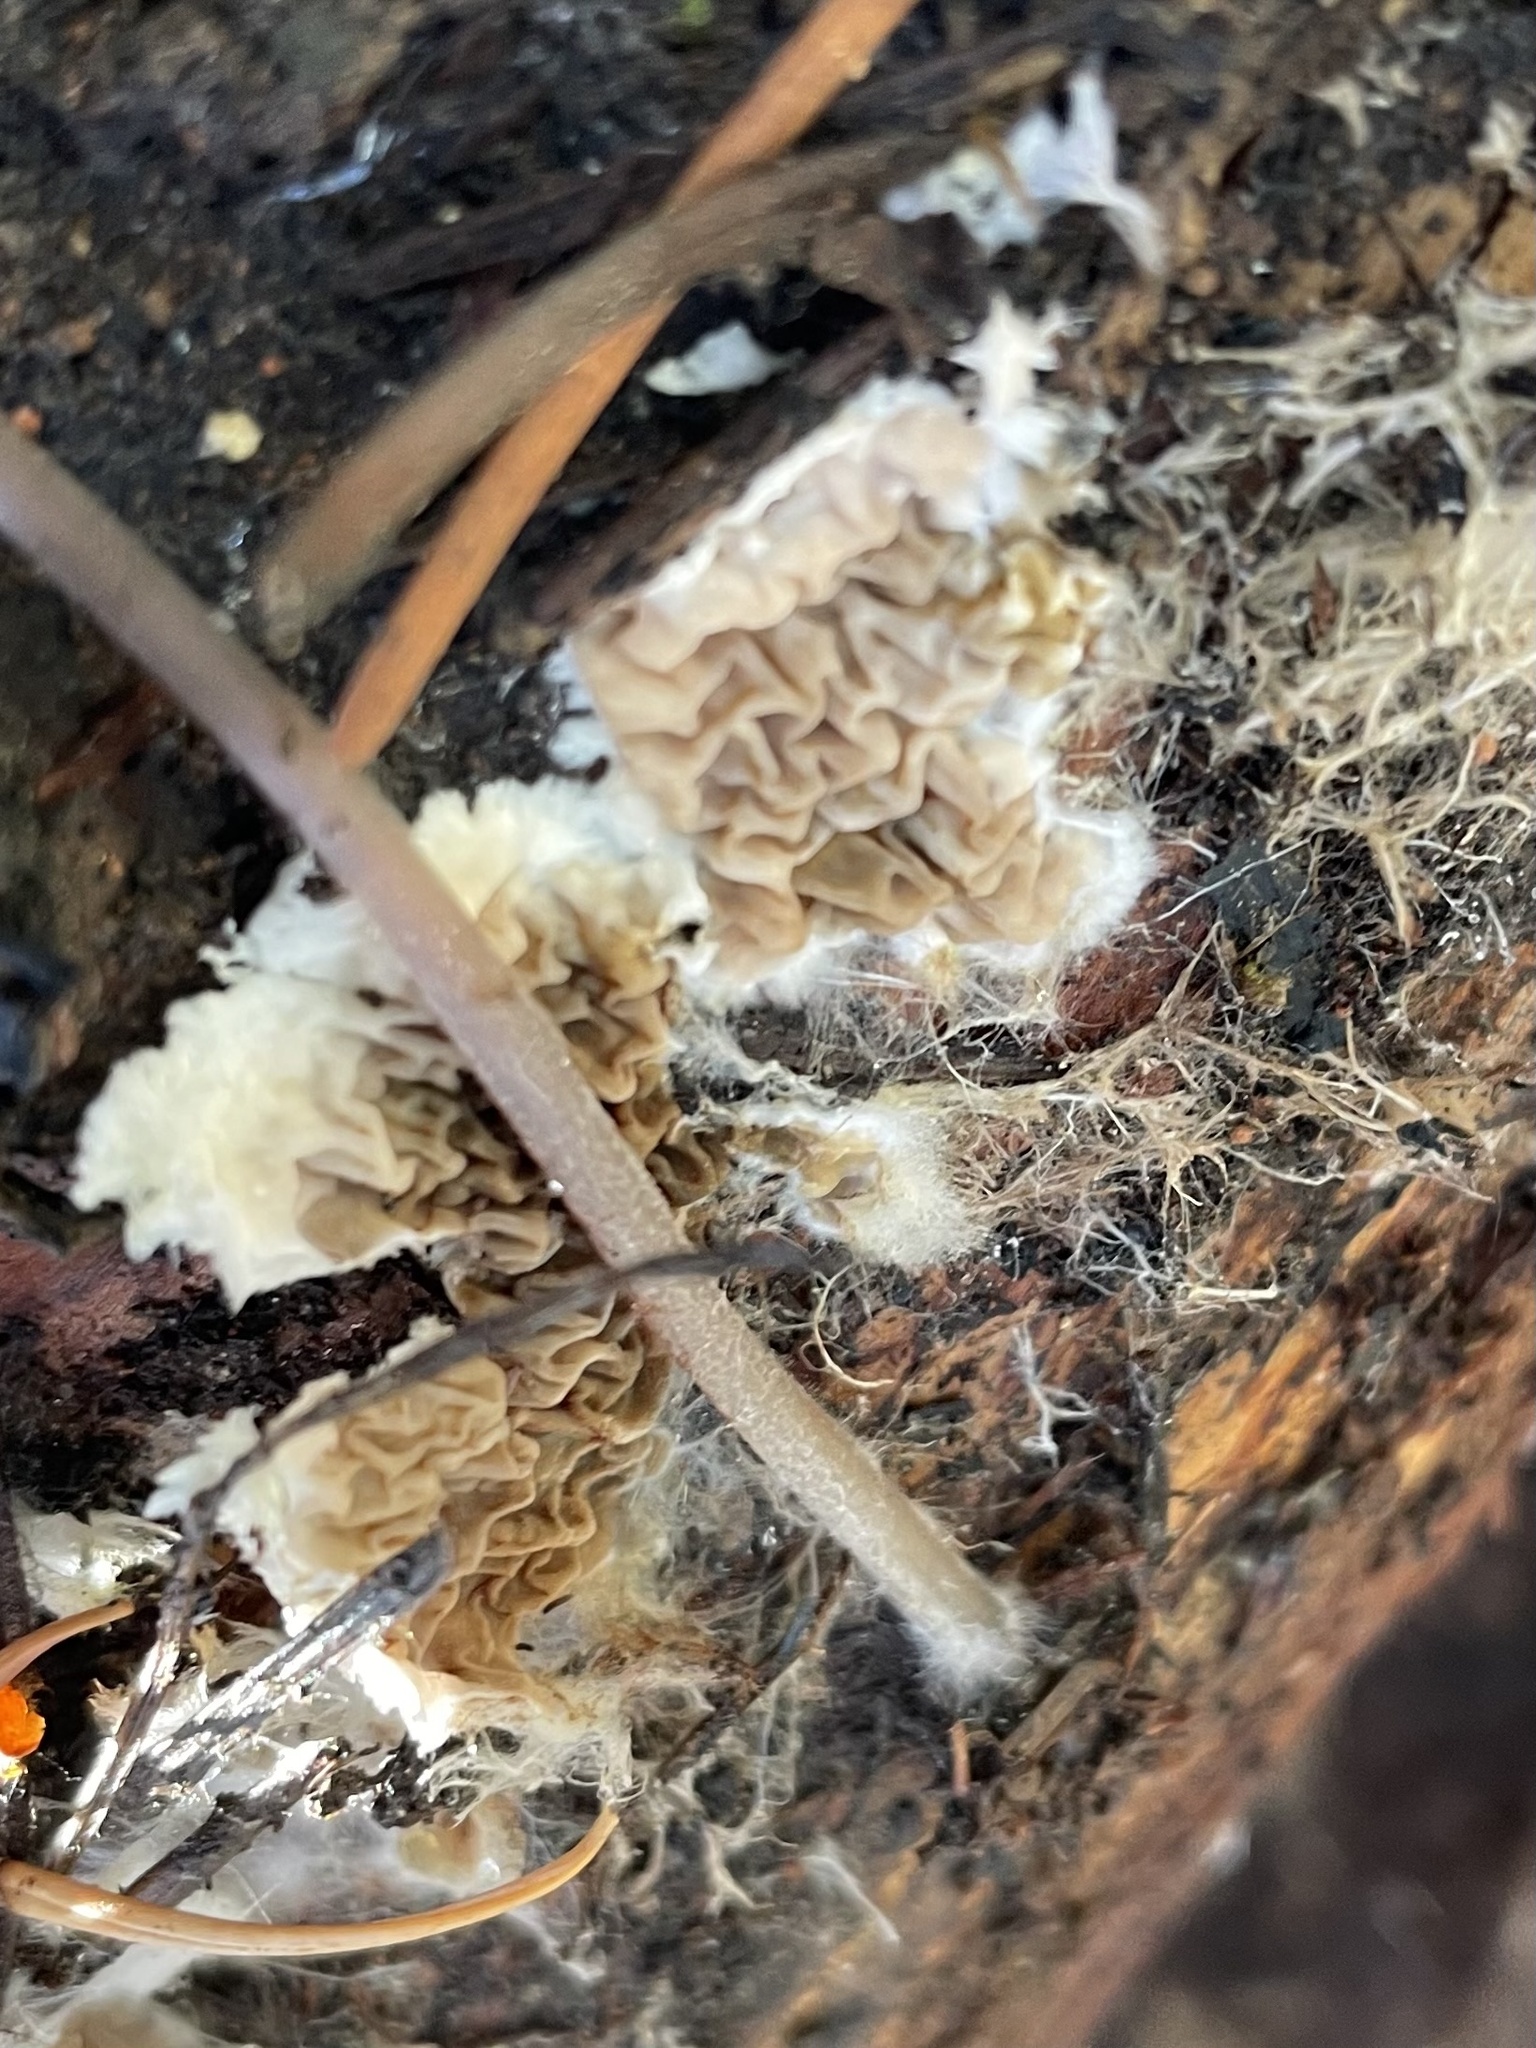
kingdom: Fungi
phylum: Basidiomycota
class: Agaricomycetes
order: Boletales
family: Serpulaceae
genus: Serpula
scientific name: Serpula himantioides
